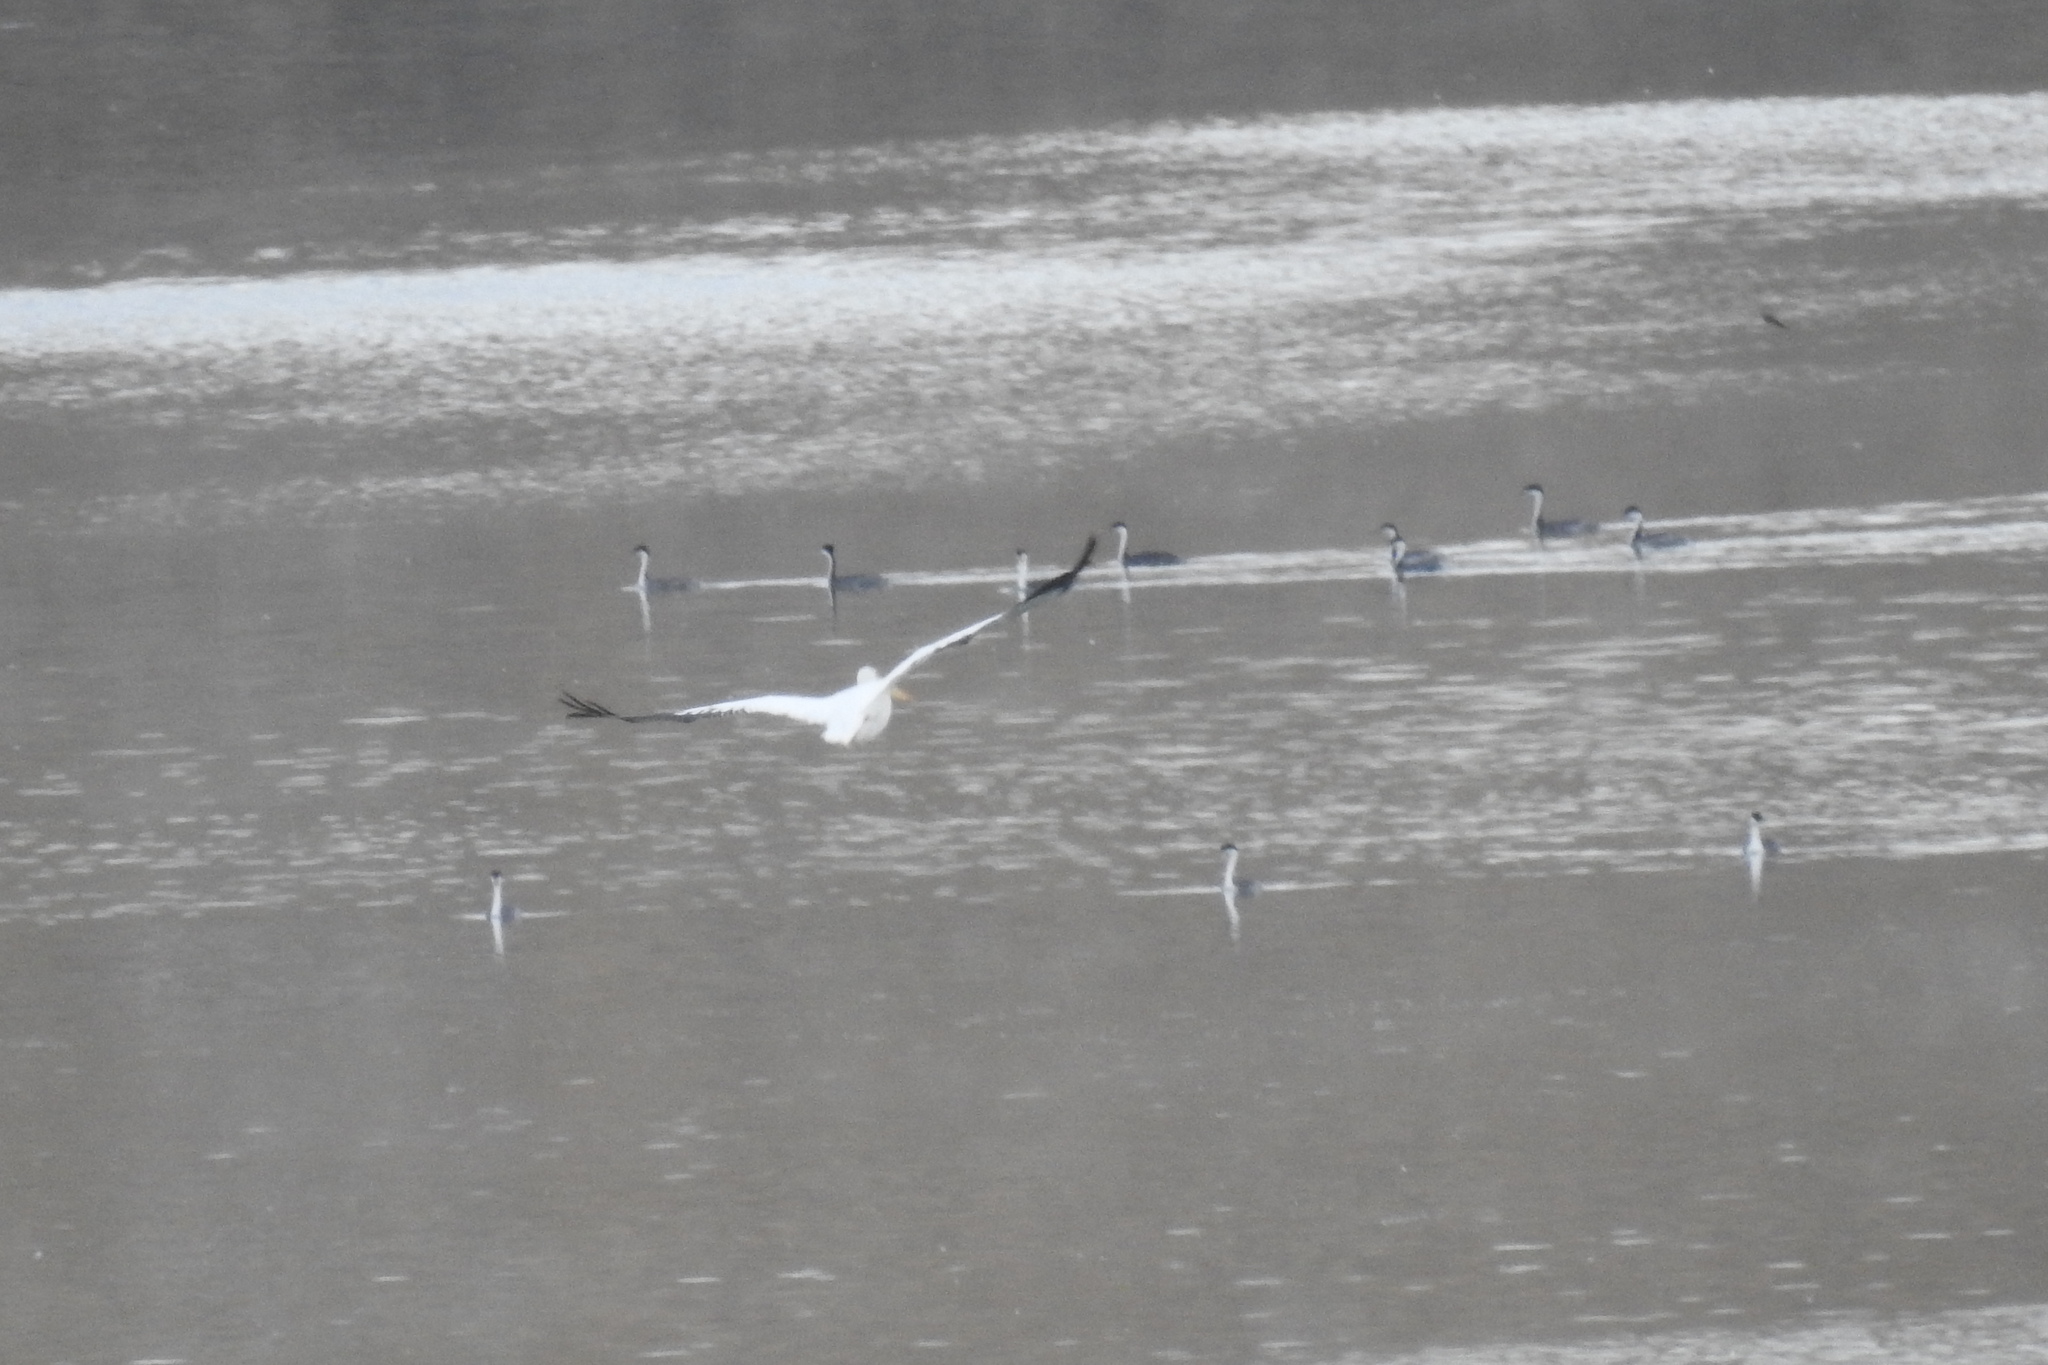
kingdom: Animalia
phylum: Chordata
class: Aves
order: Pelecaniformes
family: Pelecanidae
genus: Pelecanus
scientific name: Pelecanus erythrorhynchos
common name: American white pelican
